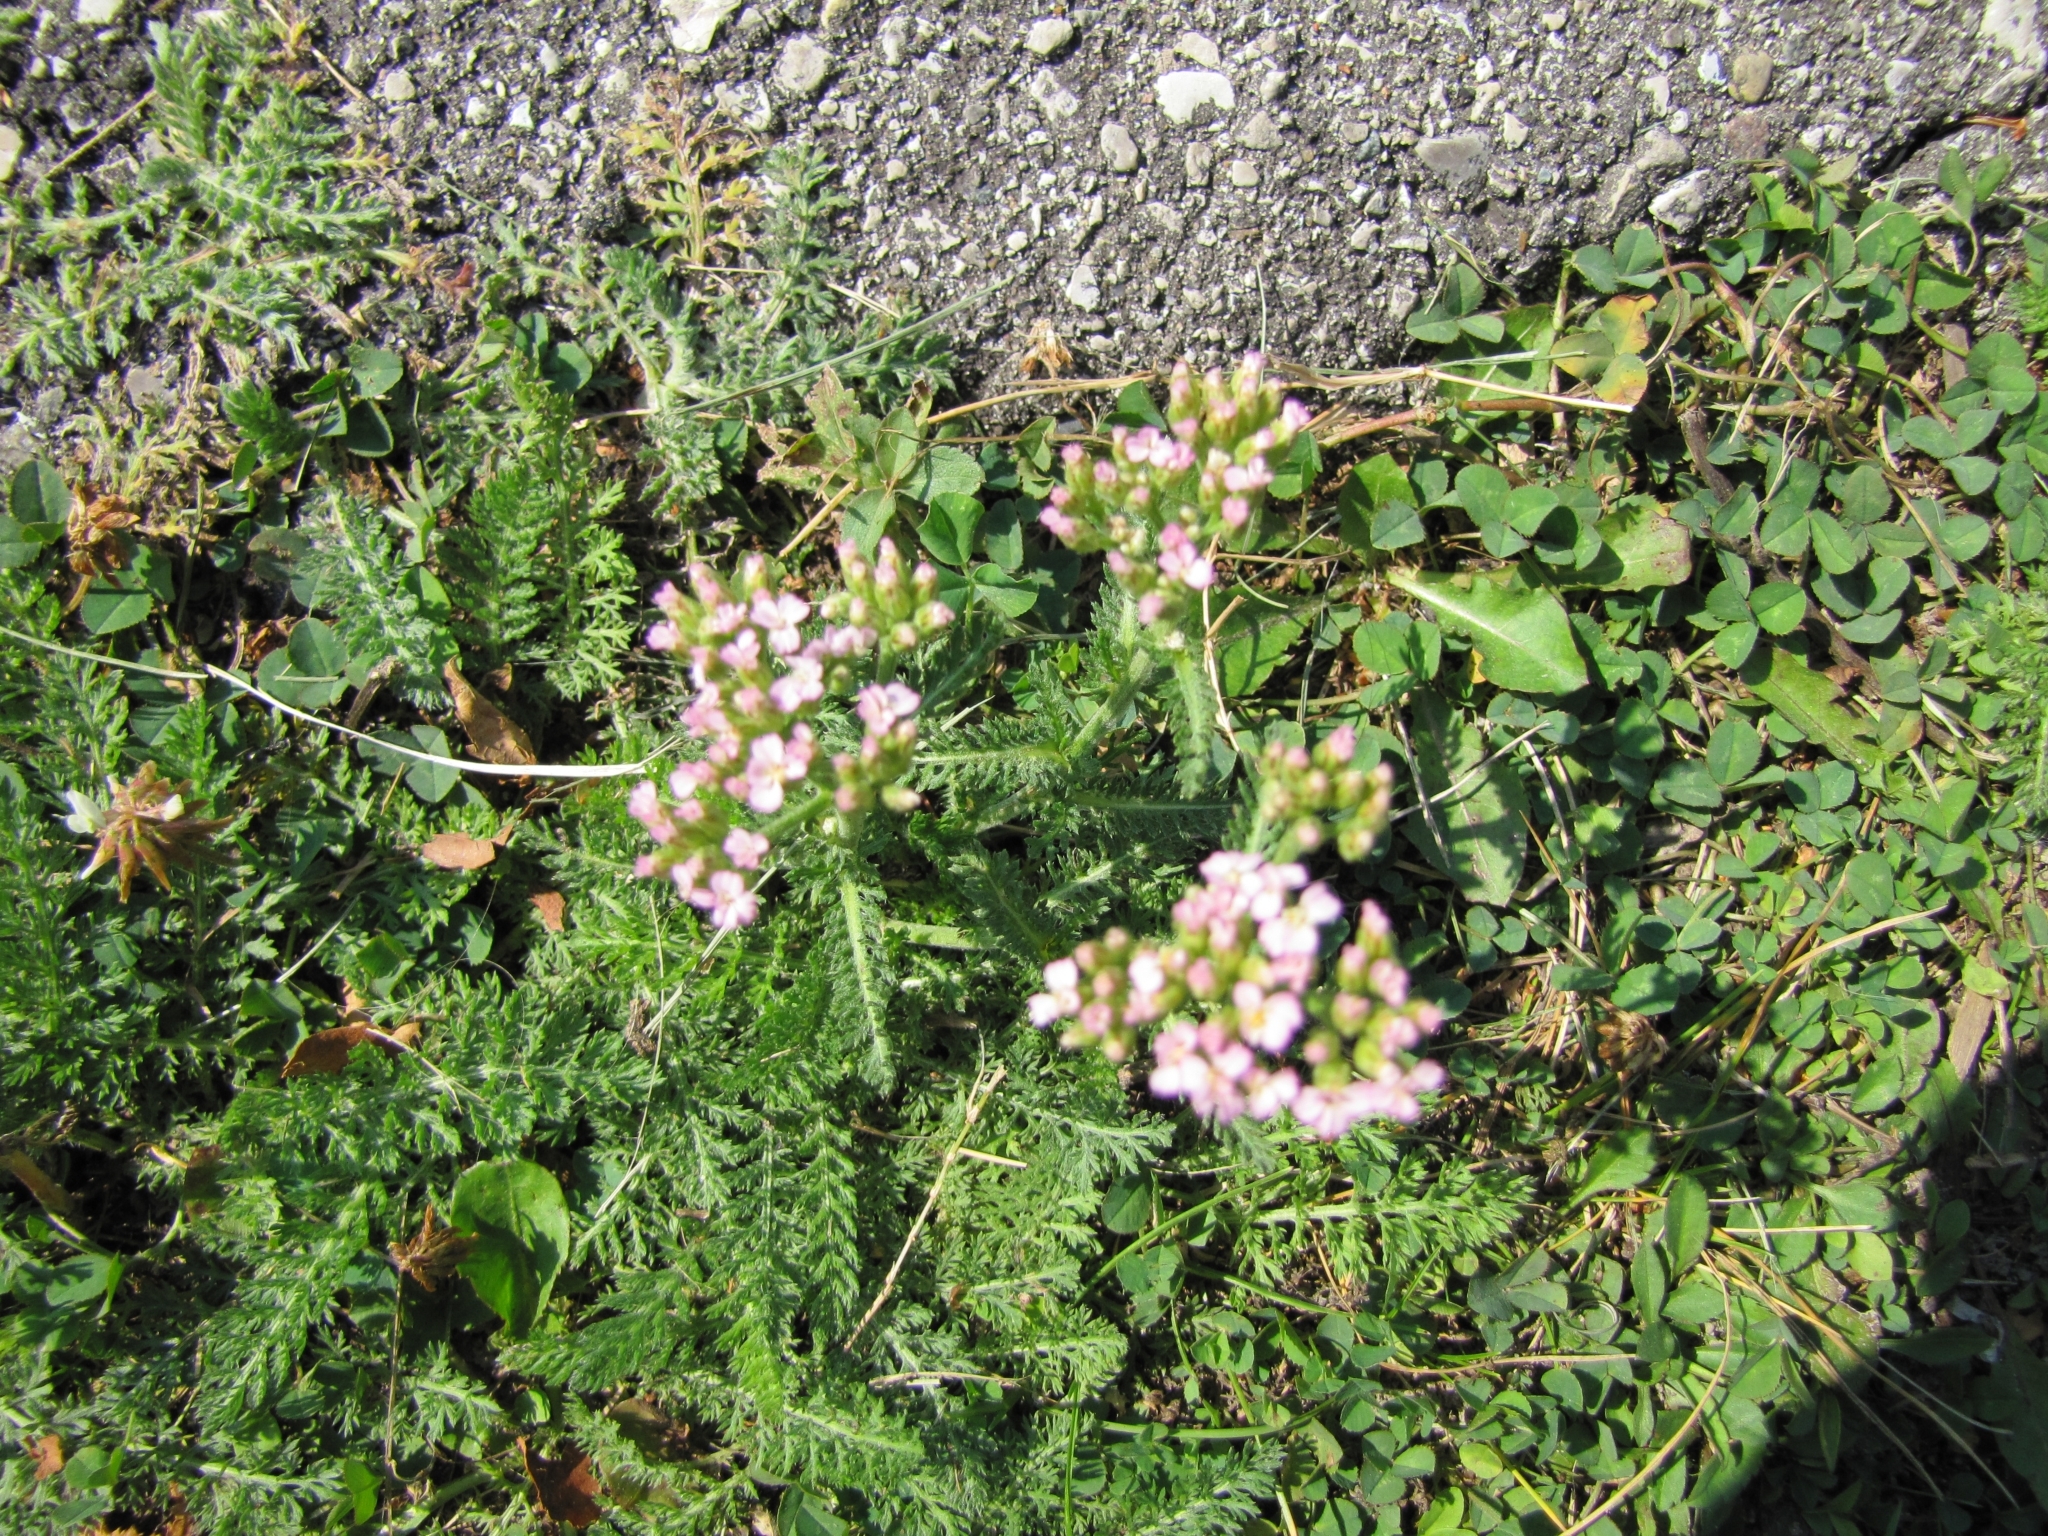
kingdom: Plantae
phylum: Tracheophyta
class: Magnoliopsida
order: Asterales
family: Asteraceae
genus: Achillea
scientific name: Achillea millefolium
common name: Yarrow
